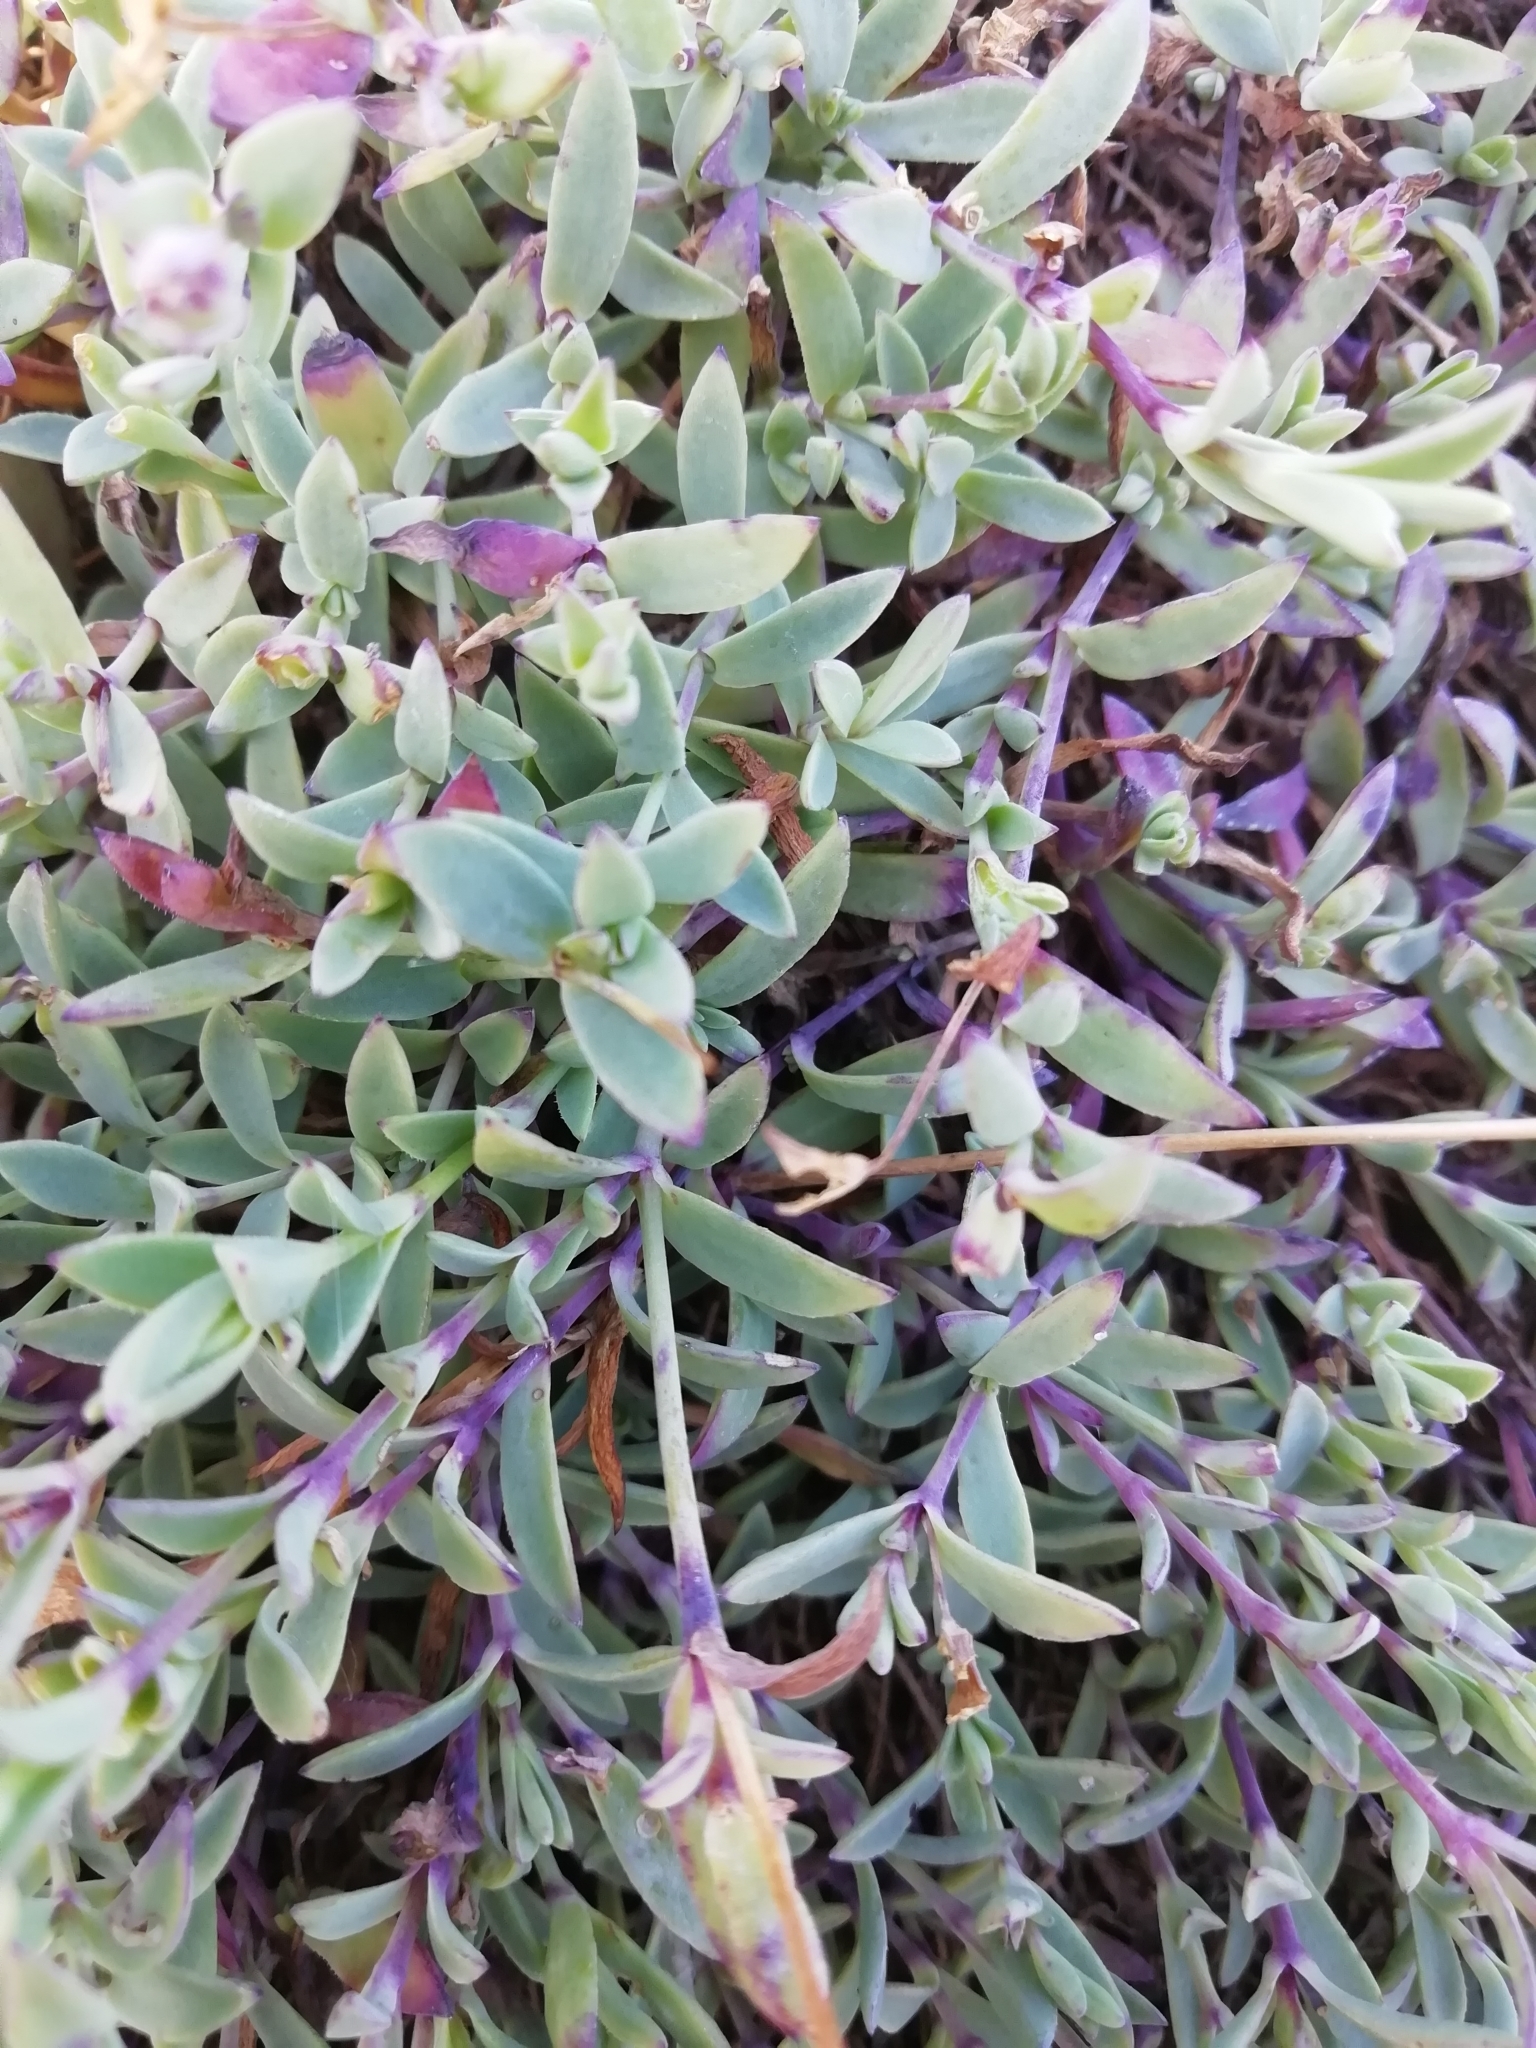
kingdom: Plantae
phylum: Tracheophyta
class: Magnoliopsida
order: Caryophyllales
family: Caryophyllaceae
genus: Silene
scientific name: Silene uniflora
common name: Sea campion
